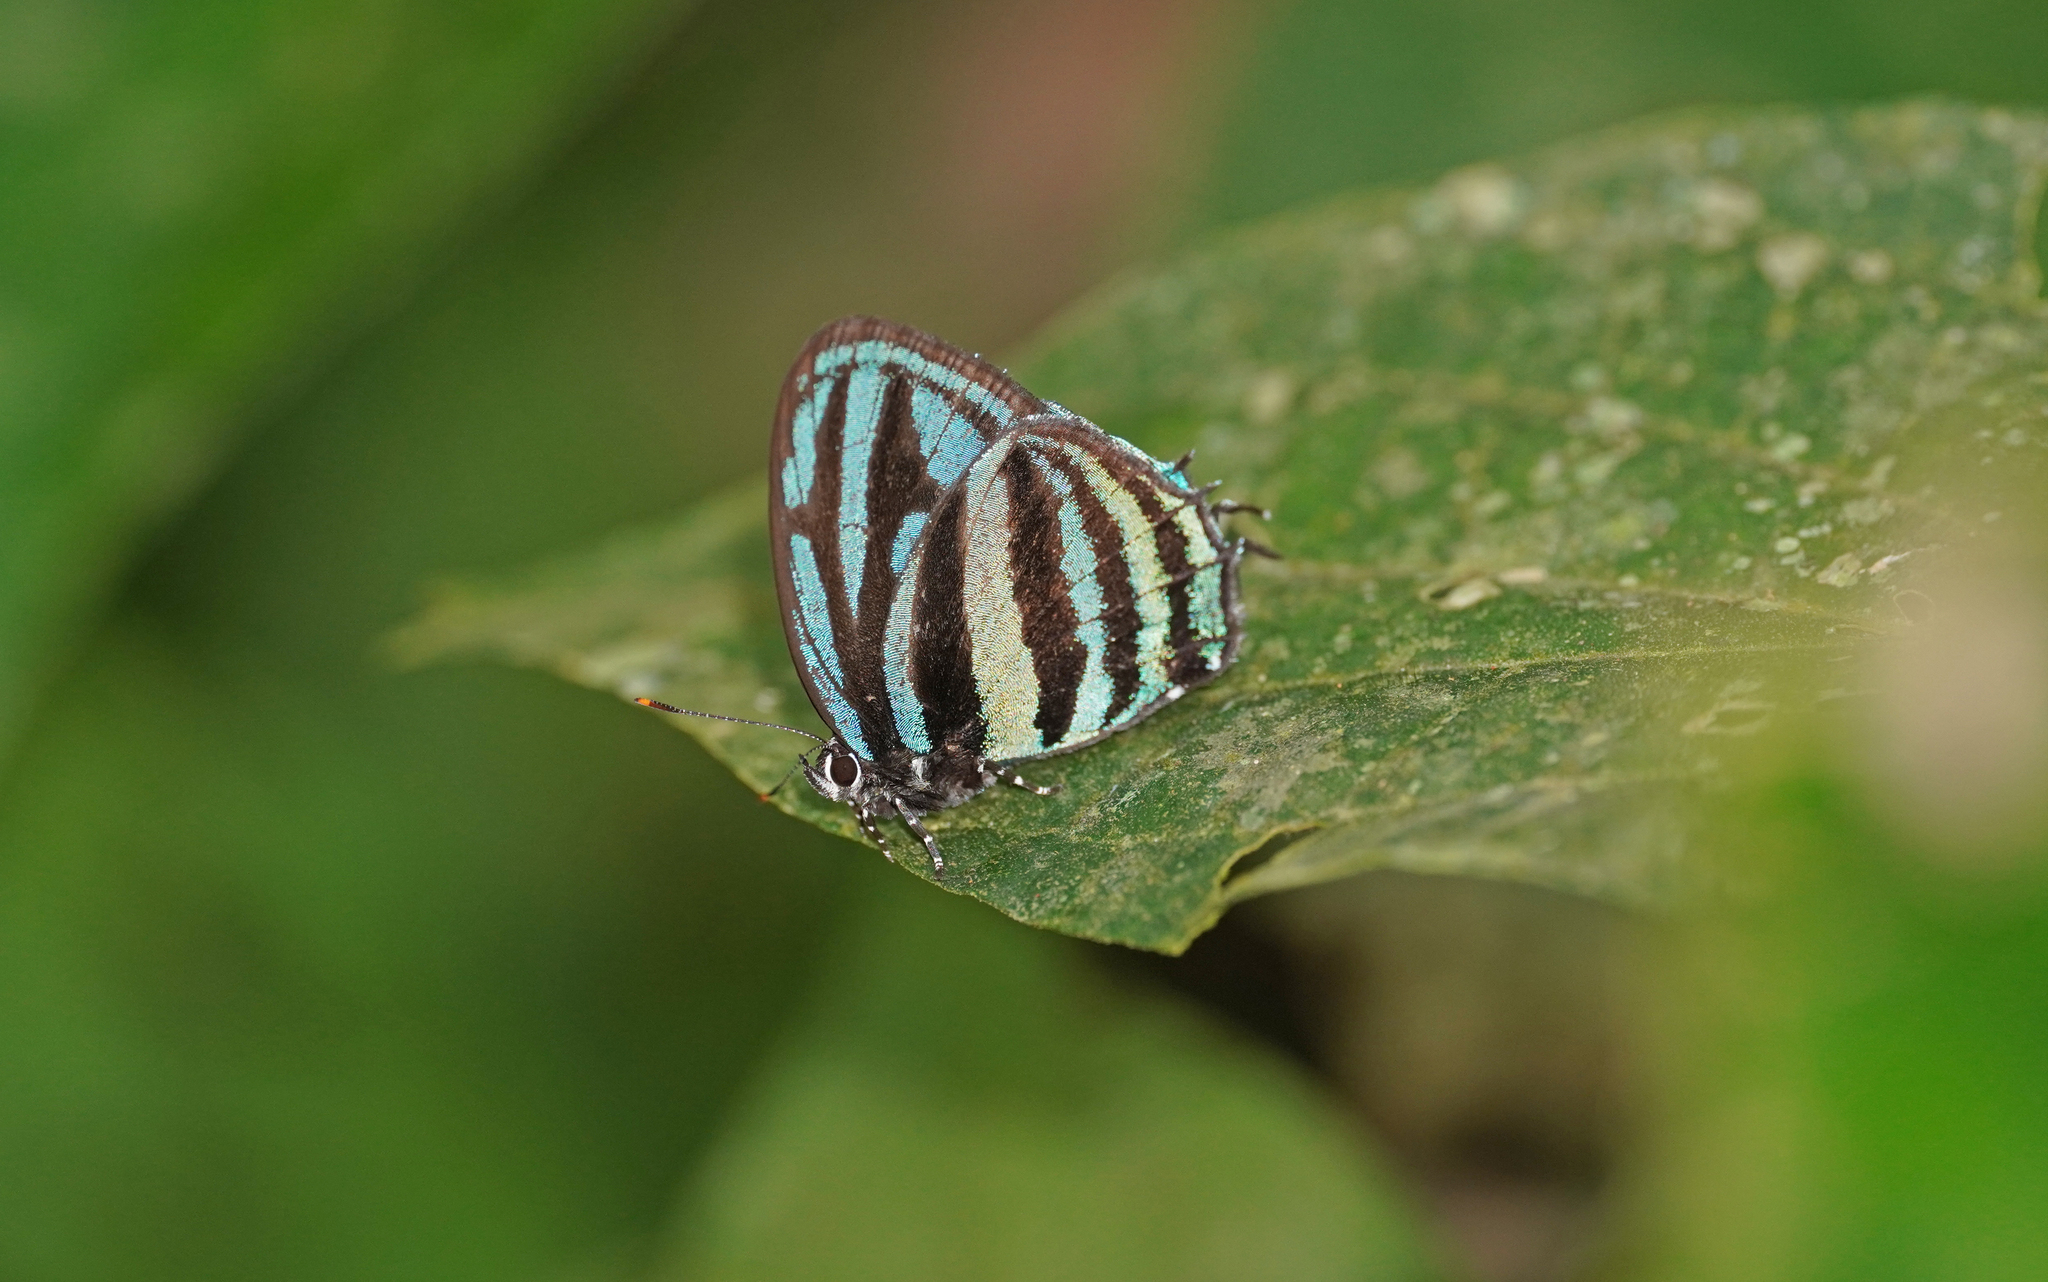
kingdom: Animalia
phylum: Arthropoda
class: Insecta
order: Lepidoptera
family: Lycaenidae
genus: Thestius
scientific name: Thestius
